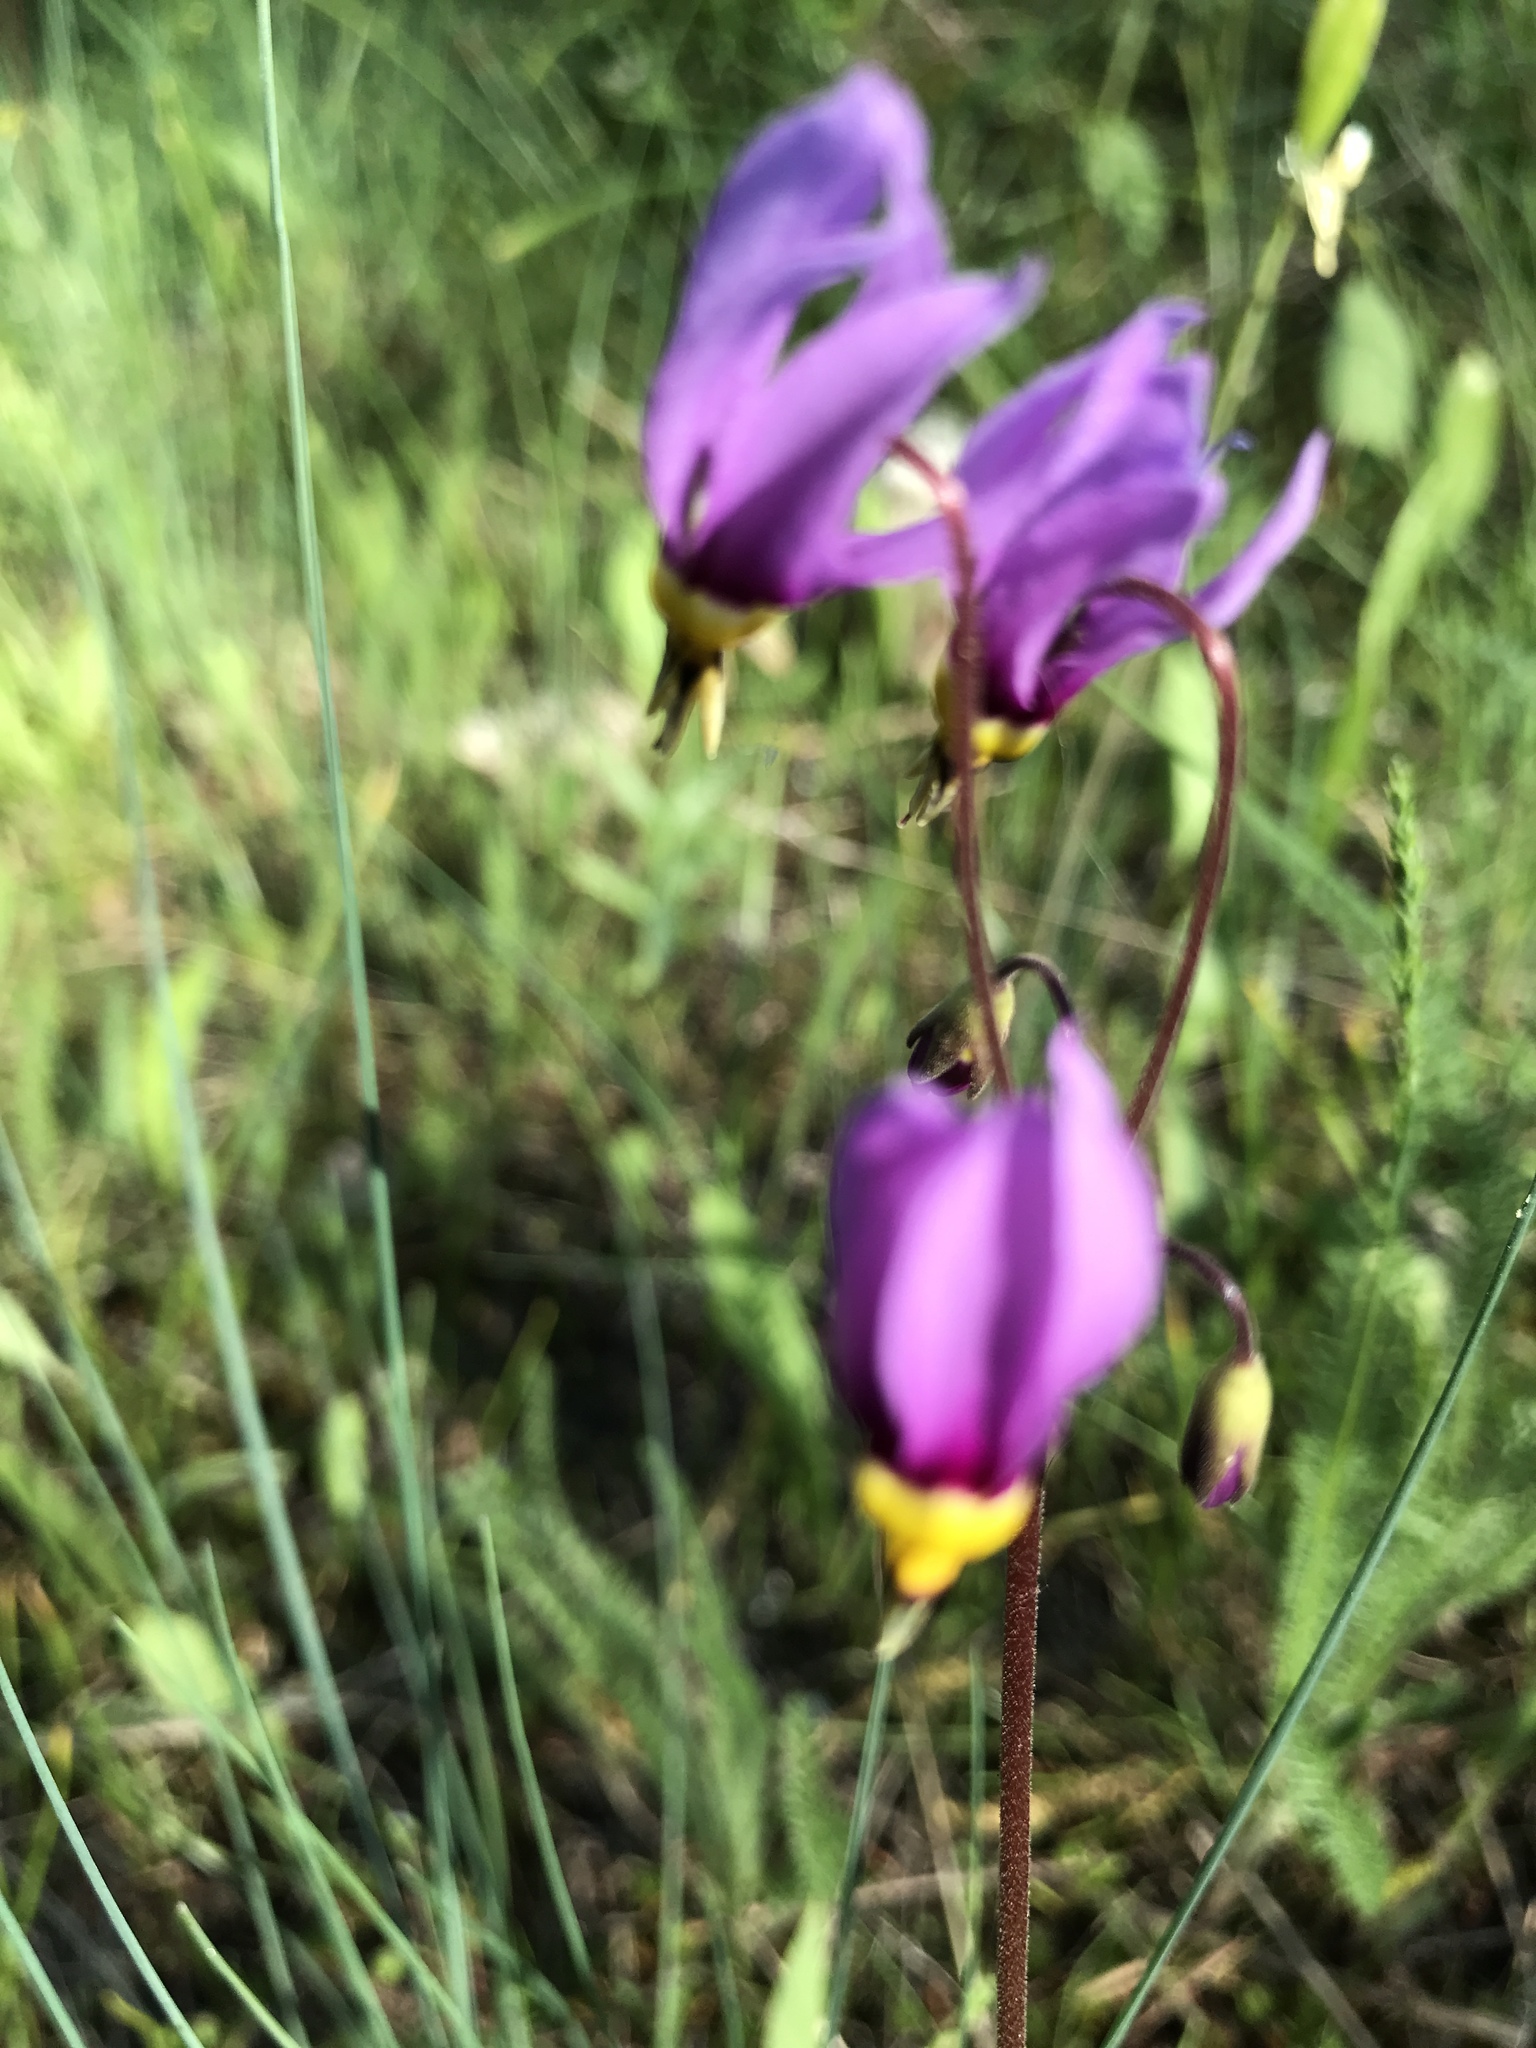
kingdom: Plantae
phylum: Tracheophyta
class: Magnoliopsida
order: Ericales
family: Primulaceae
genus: Dodecatheon
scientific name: Dodecatheon pulchellum
